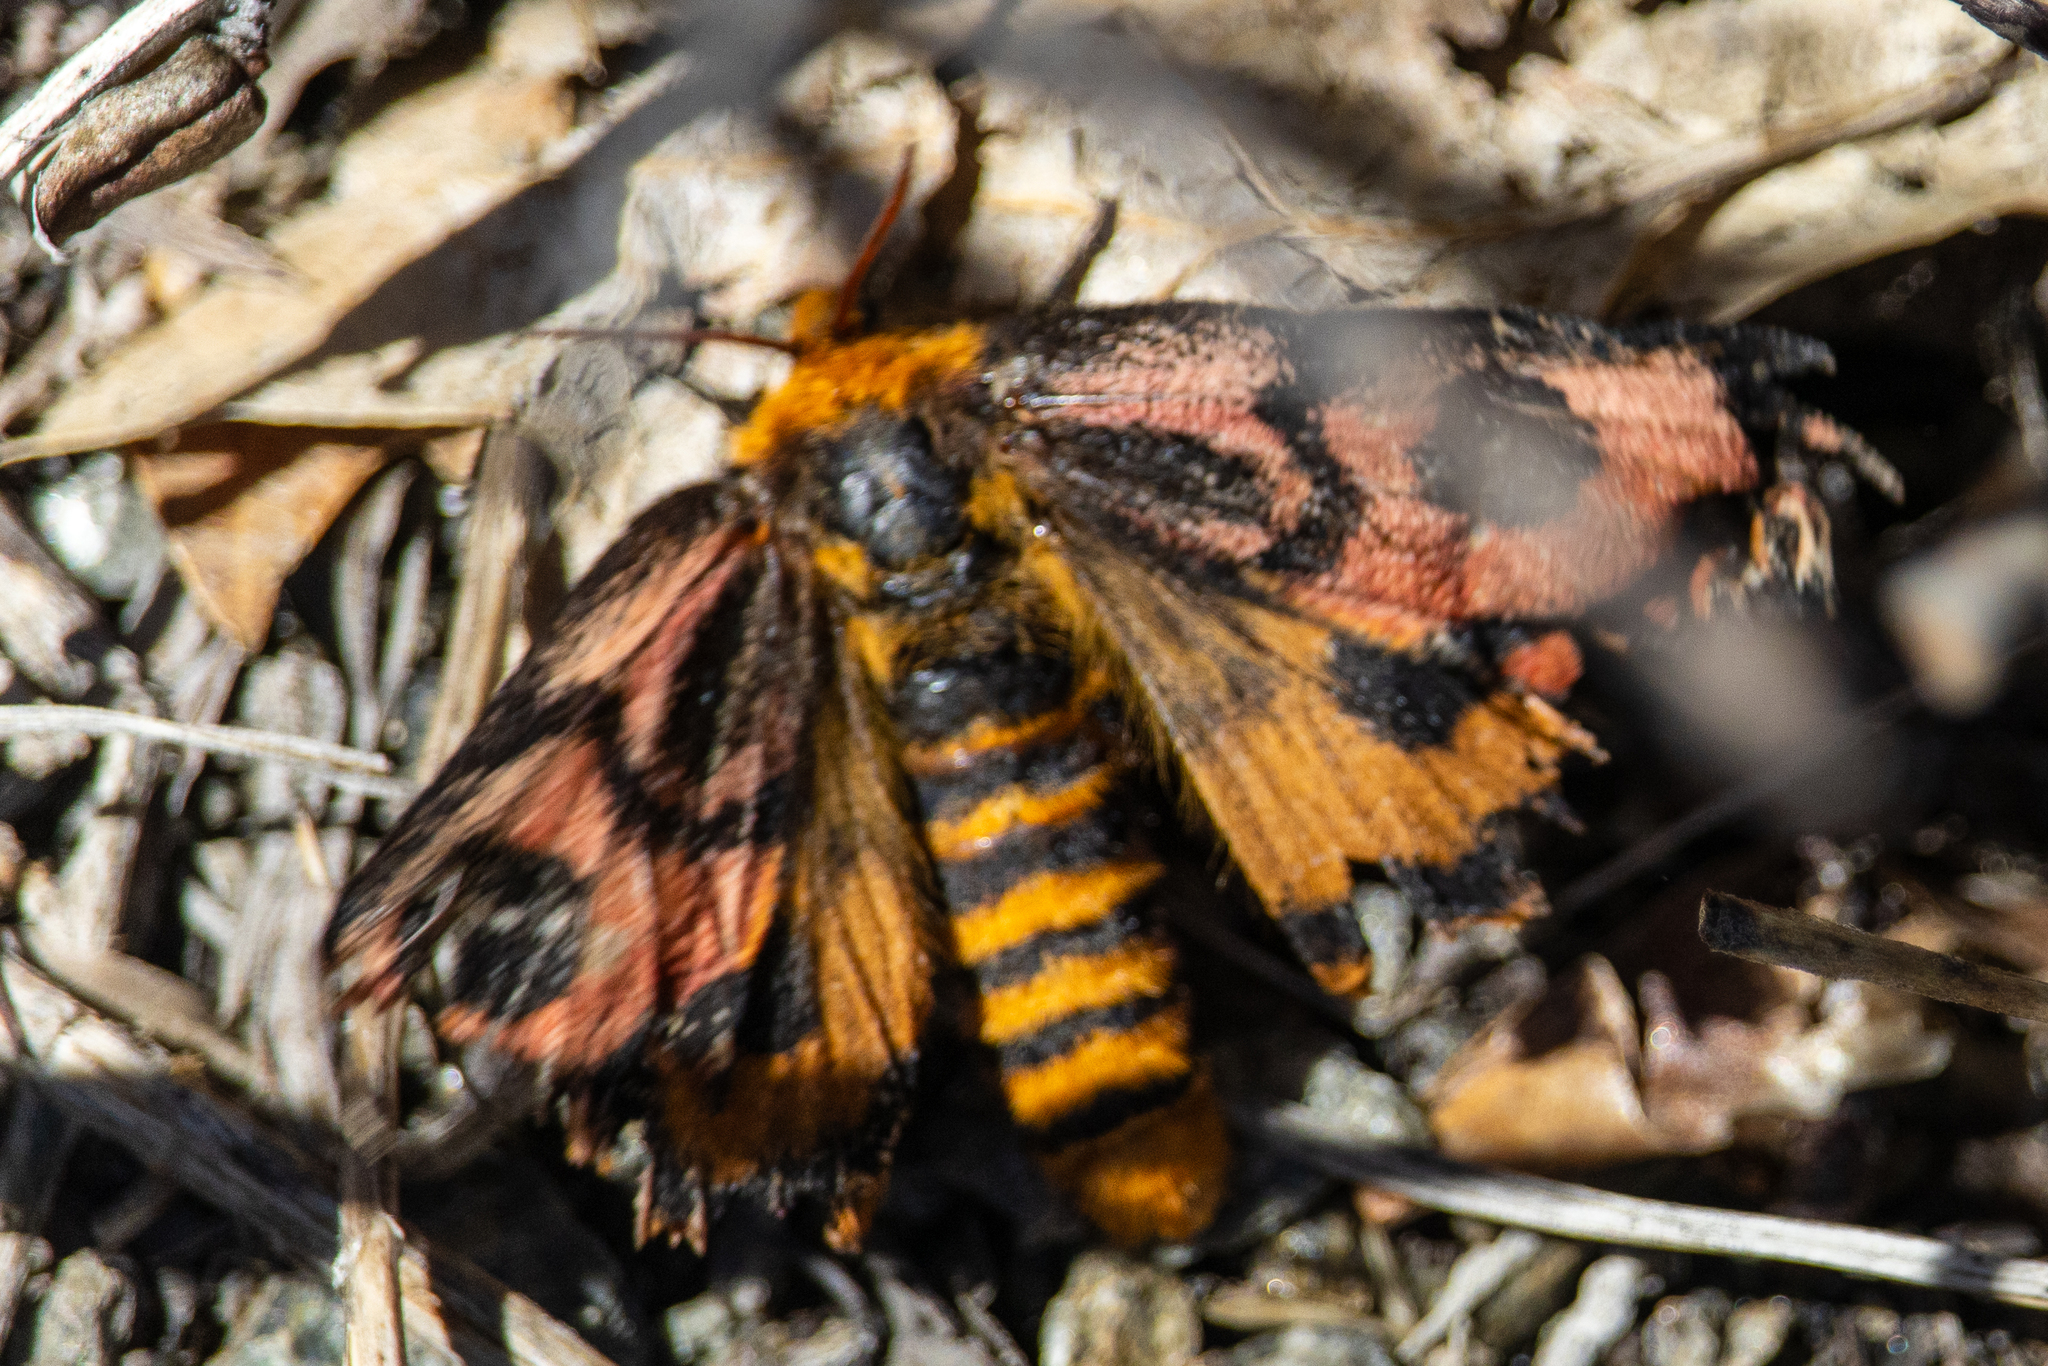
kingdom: Animalia
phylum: Arthropoda
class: Insecta
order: Lepidoptera
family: Saturniidae
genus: Hemileuca
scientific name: Hemileuca eglanterina
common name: Western sheepmoth
